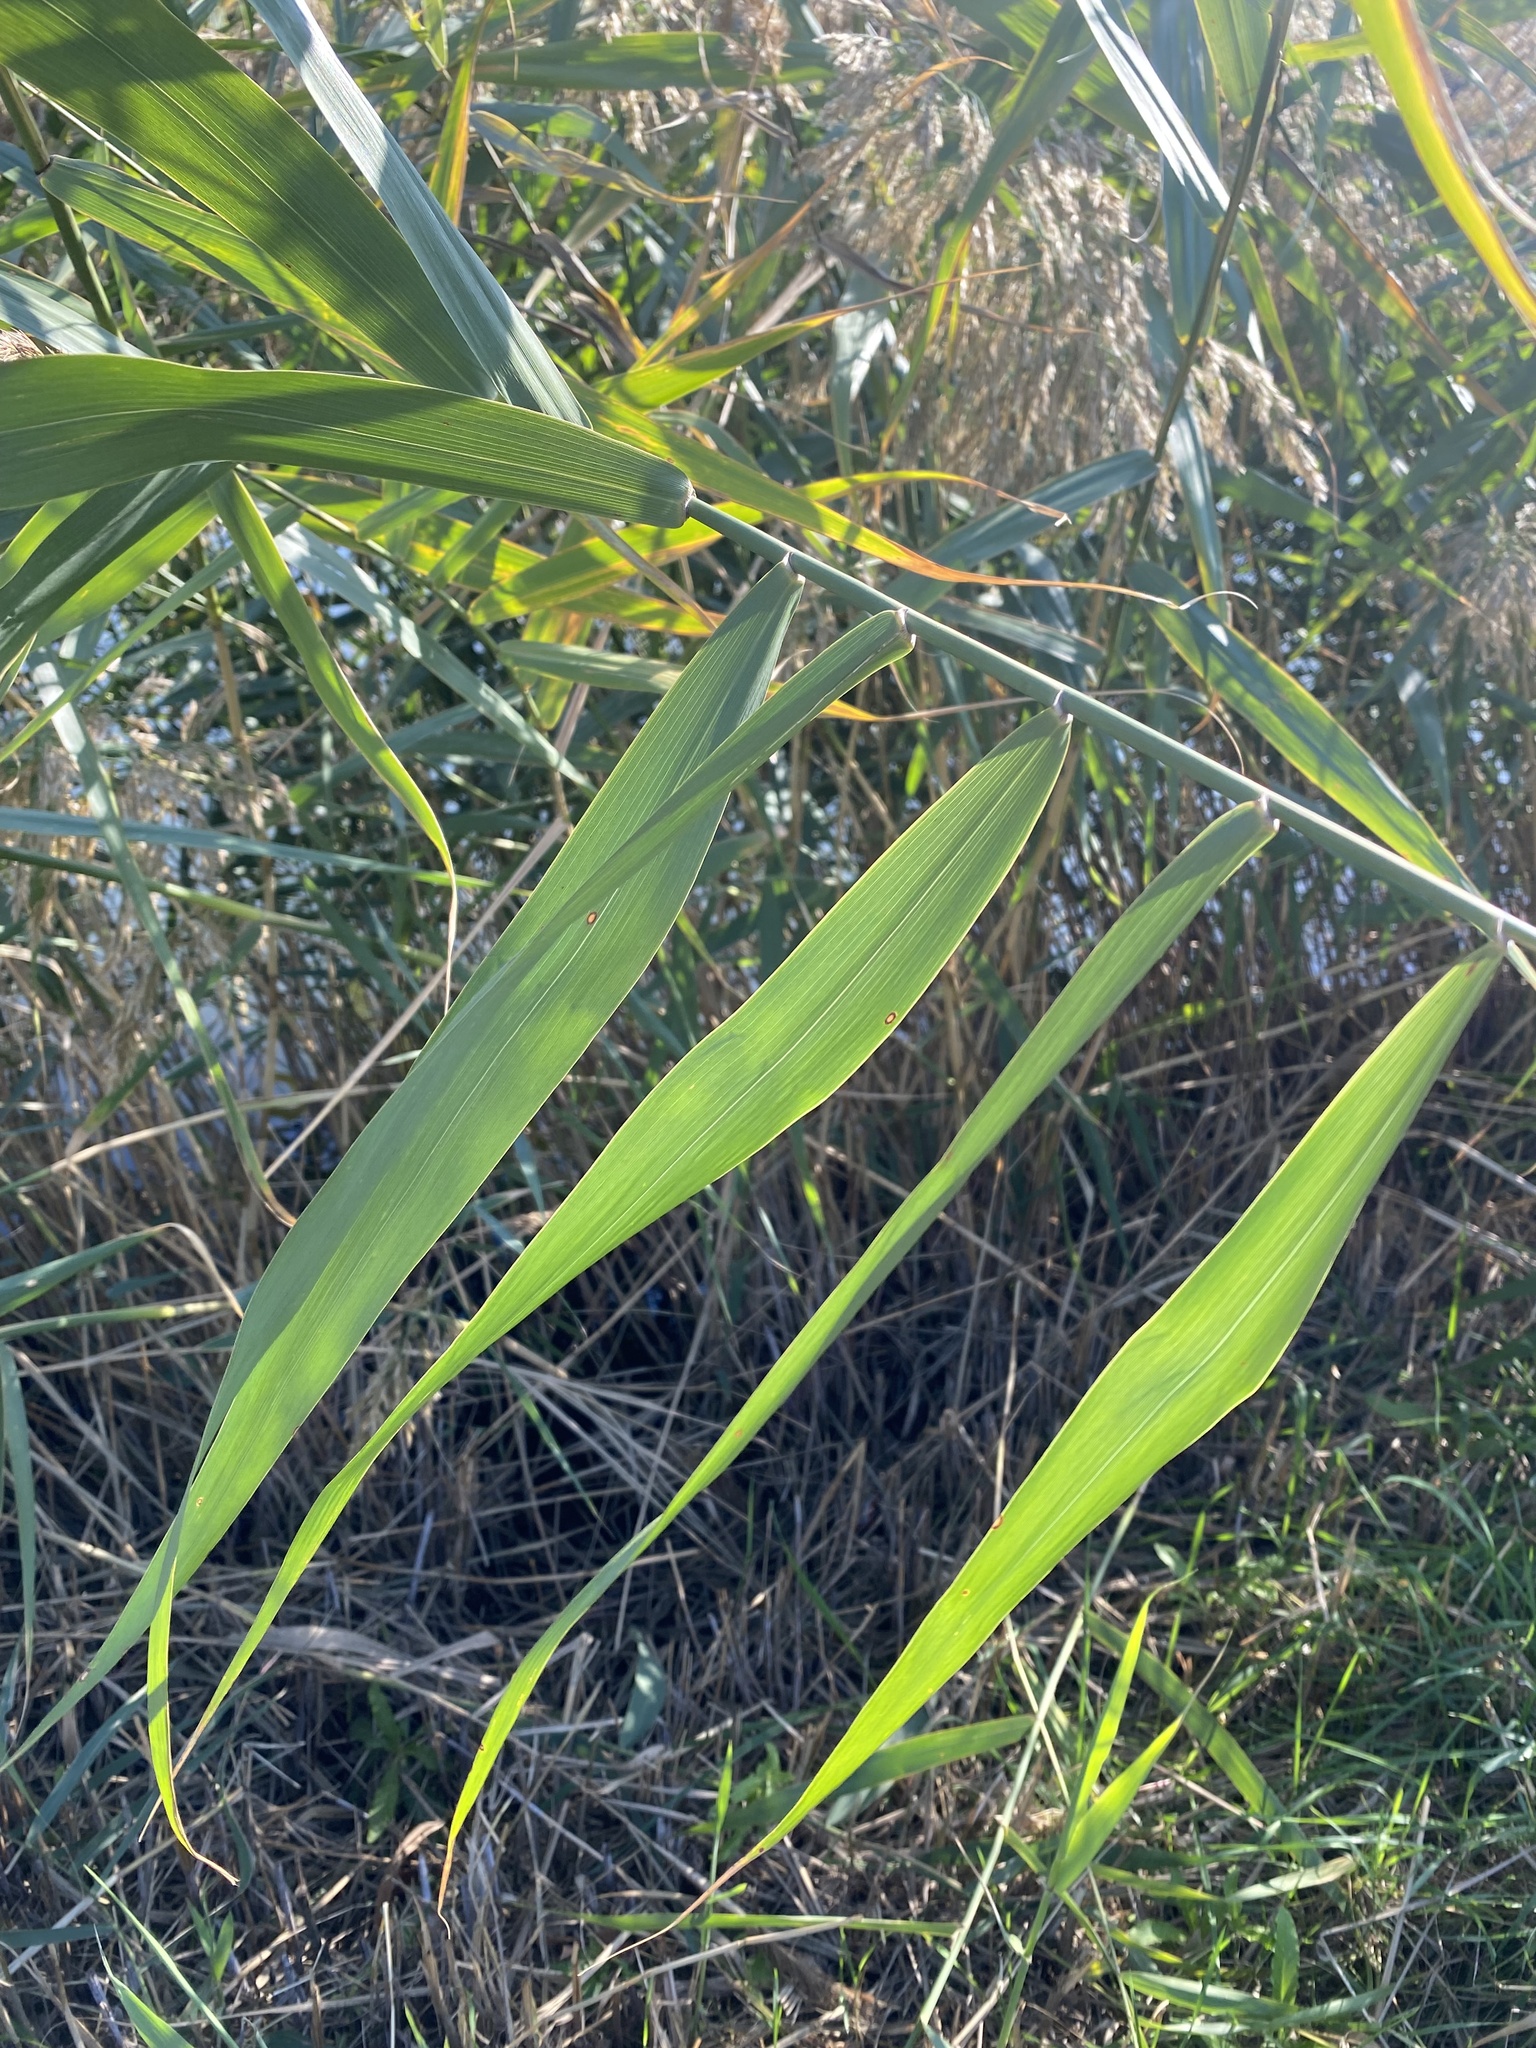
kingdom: Plantae
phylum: Tracheophyta
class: Liliopsida
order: Poales
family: Poaceae
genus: Phragmites
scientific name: Phragmites australis
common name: Common reed
